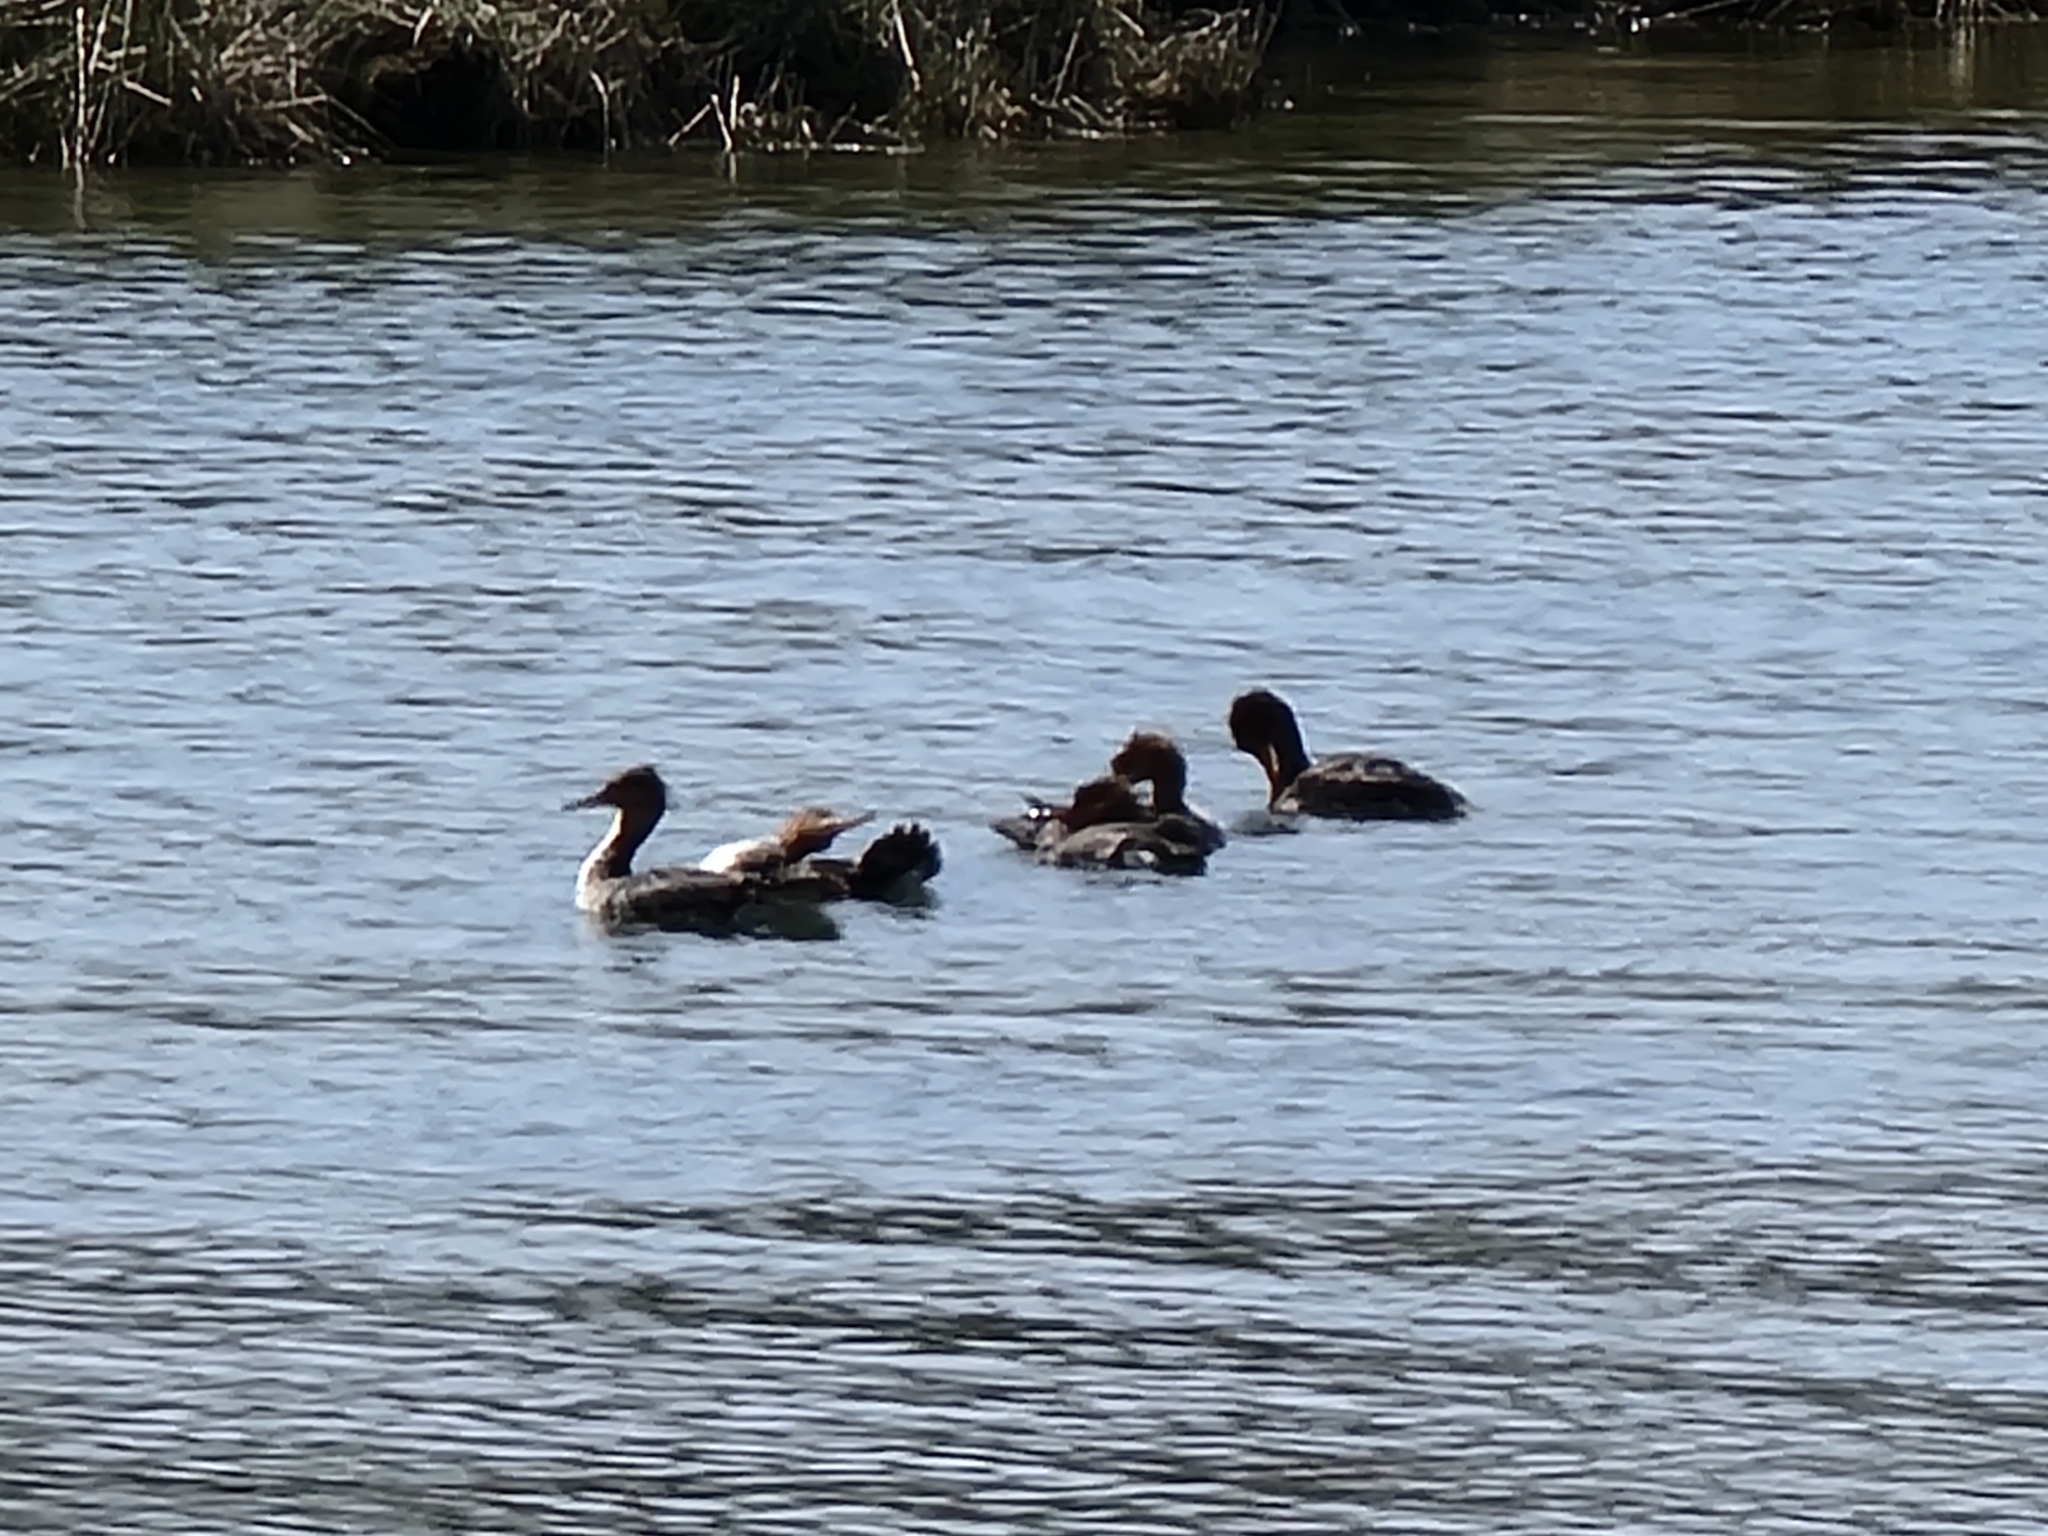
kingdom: Animalia
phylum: Chordata
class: Aves
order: Anseriformes
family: Anatidae
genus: Mergus
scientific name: Mergus serrator
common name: Red-breasted merganser
